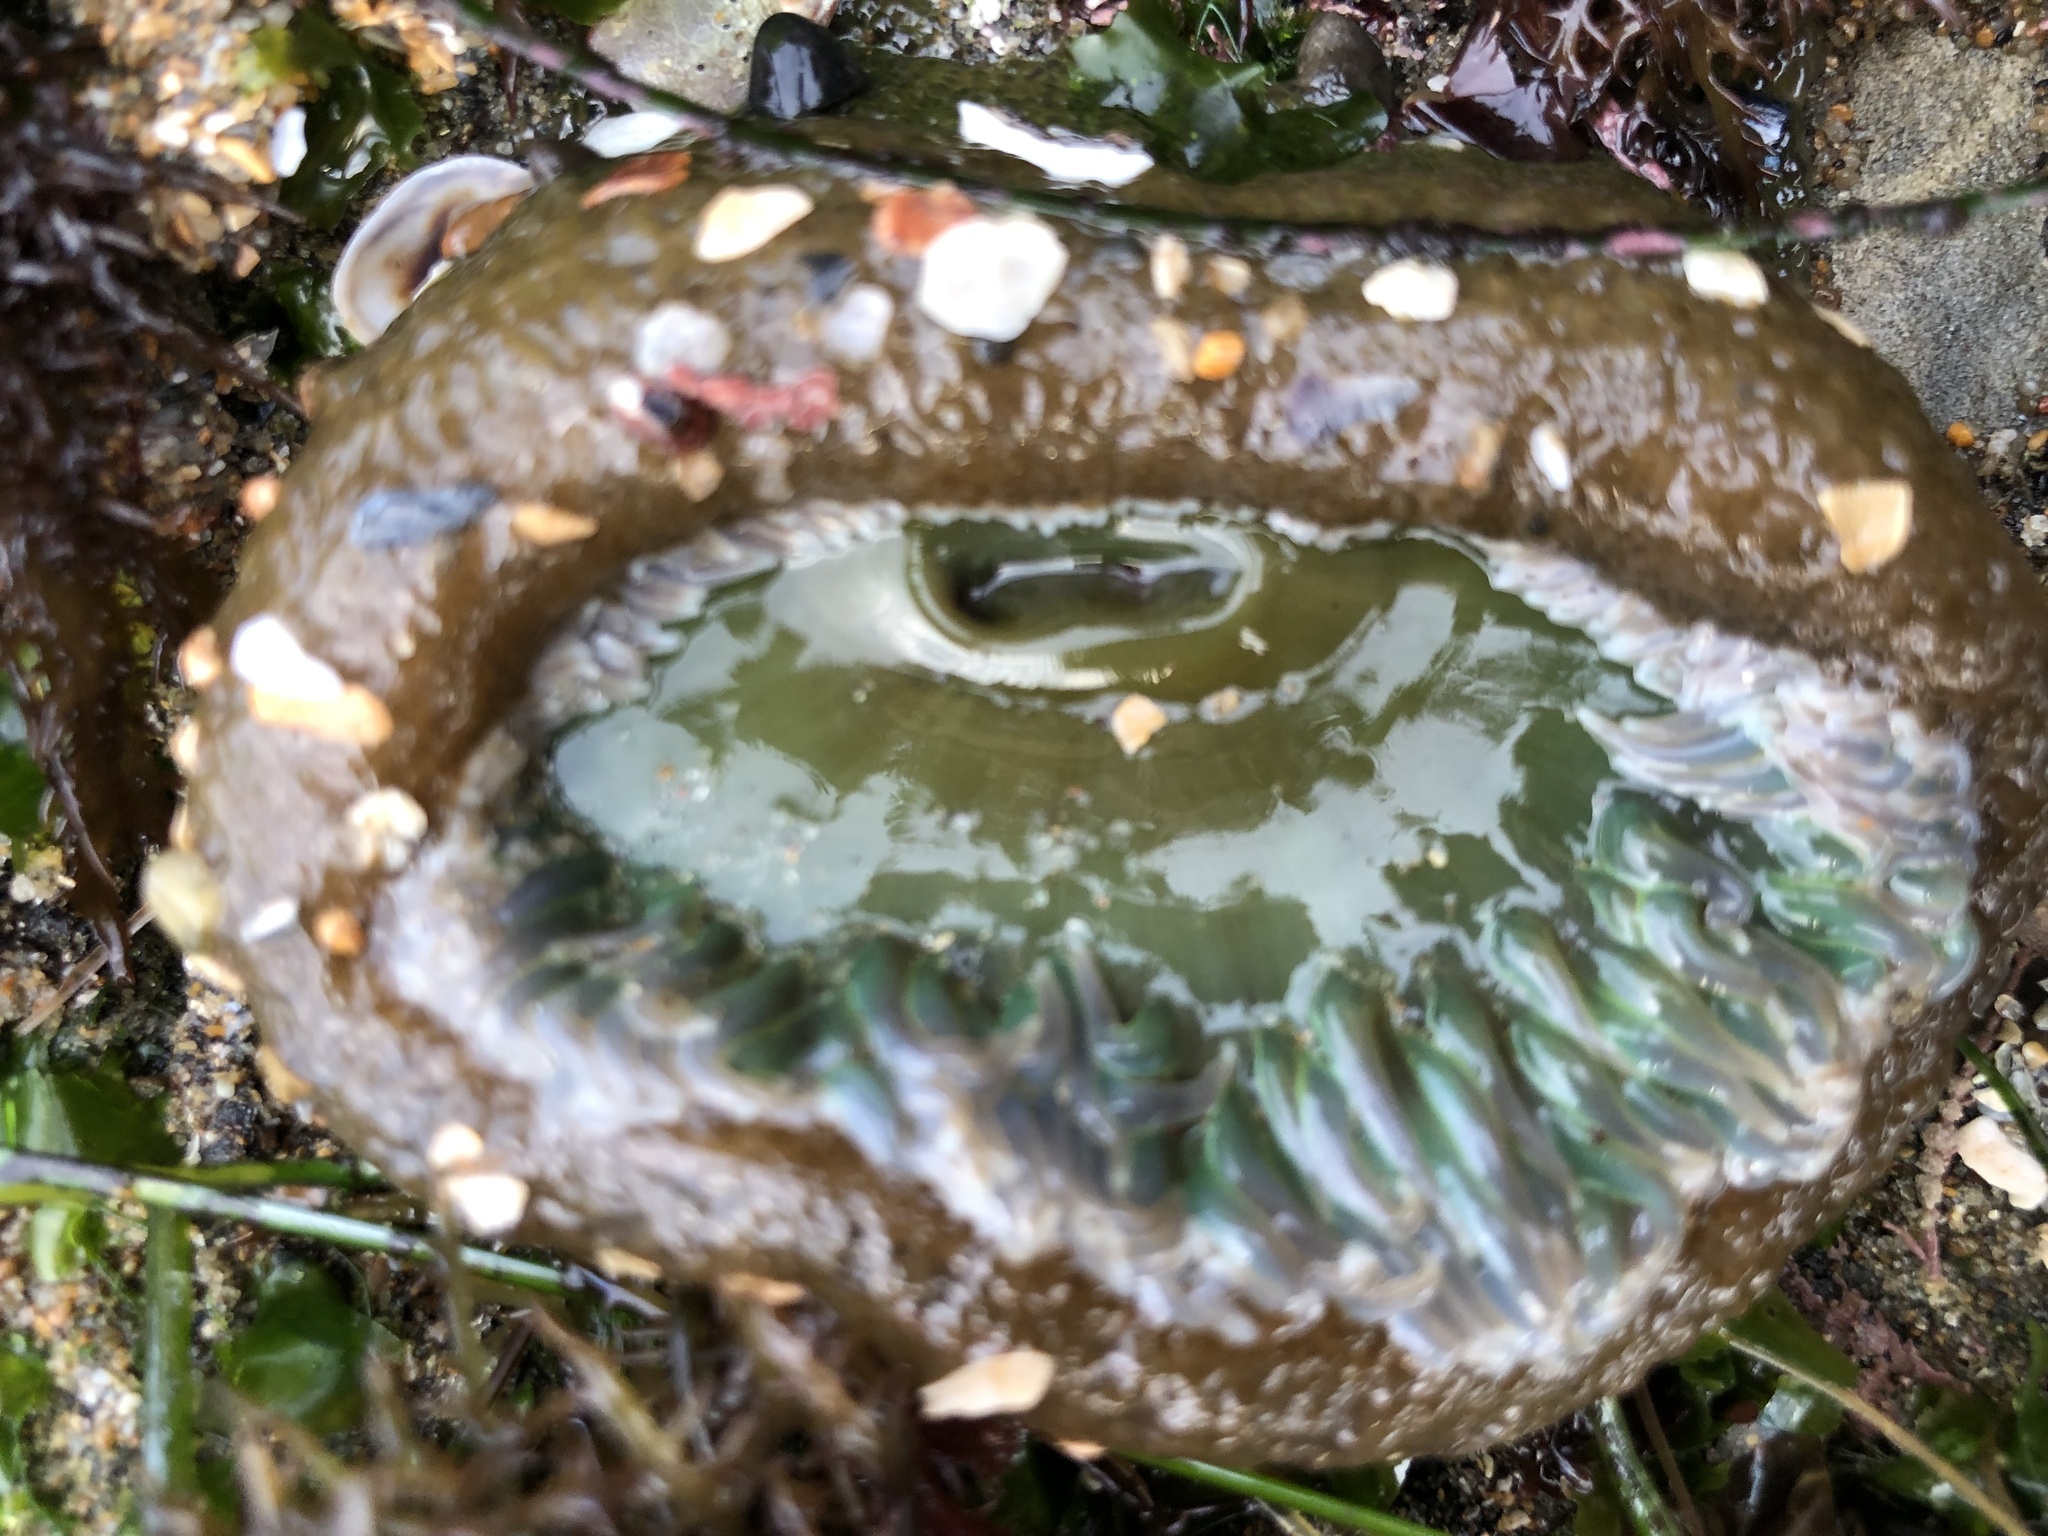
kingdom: Animalia
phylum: Cnidaria
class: Anthozoa
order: Actiniaria
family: Actiniidae
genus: Anthopleura
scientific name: Anthopleura xanthogrammica
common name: Giant green anemone
